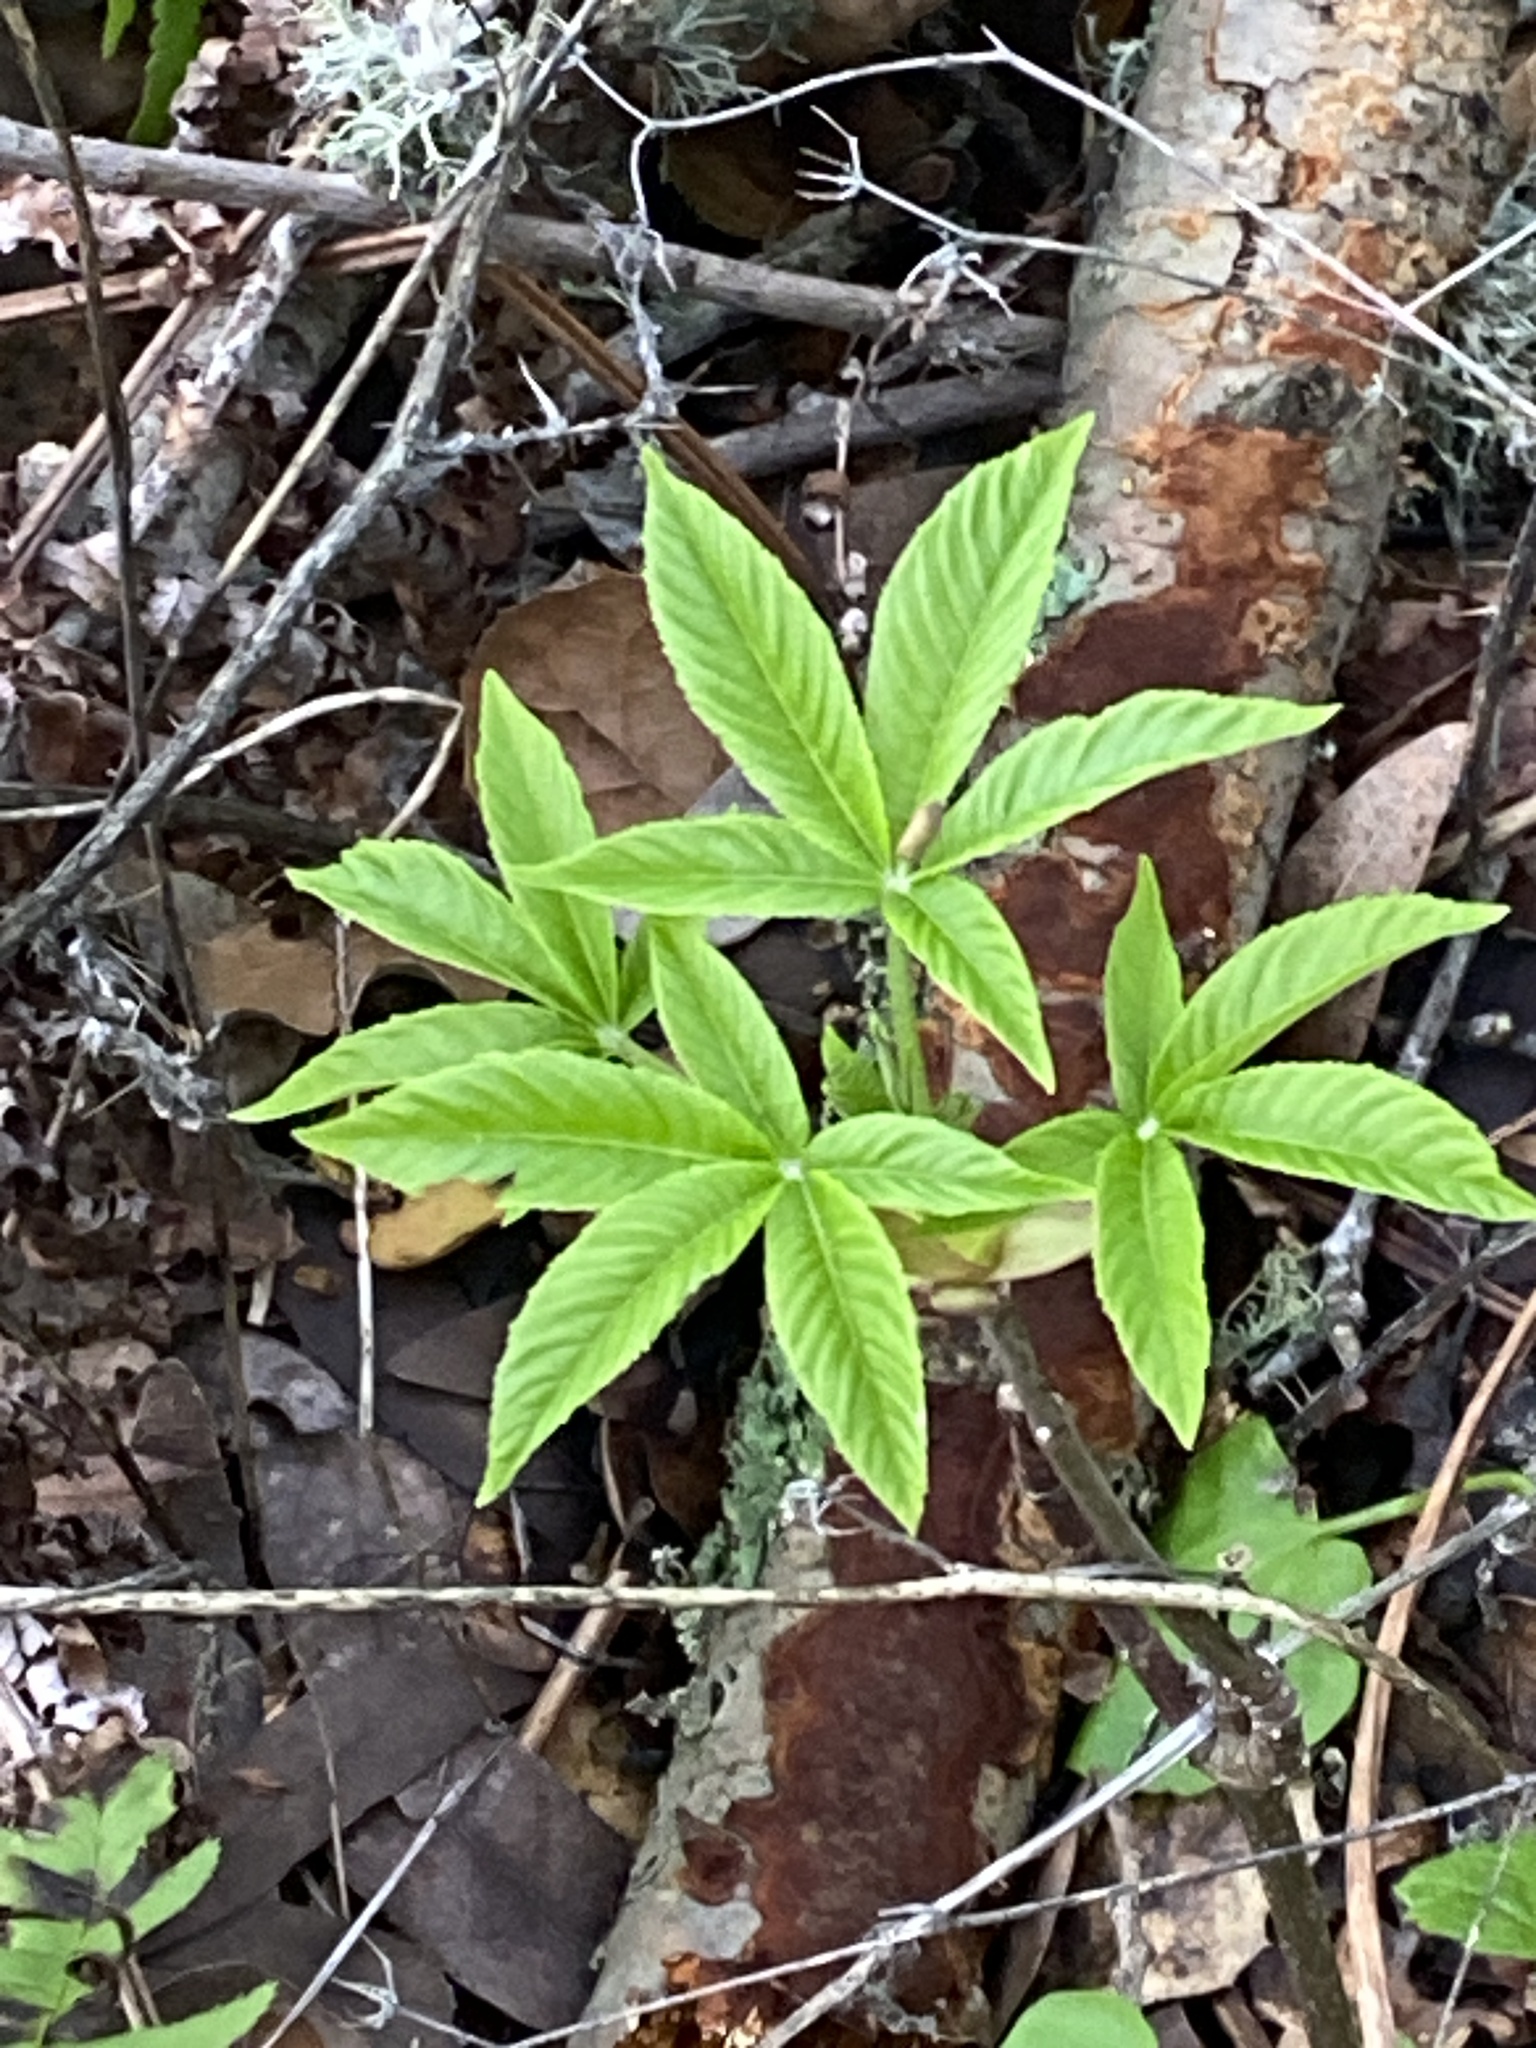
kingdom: Plantae
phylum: Tracheophyta
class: Magnoliopsida
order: Sapindales
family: Sapindaceae
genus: Aesculus
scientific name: Aesculus californica
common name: California buckeye
